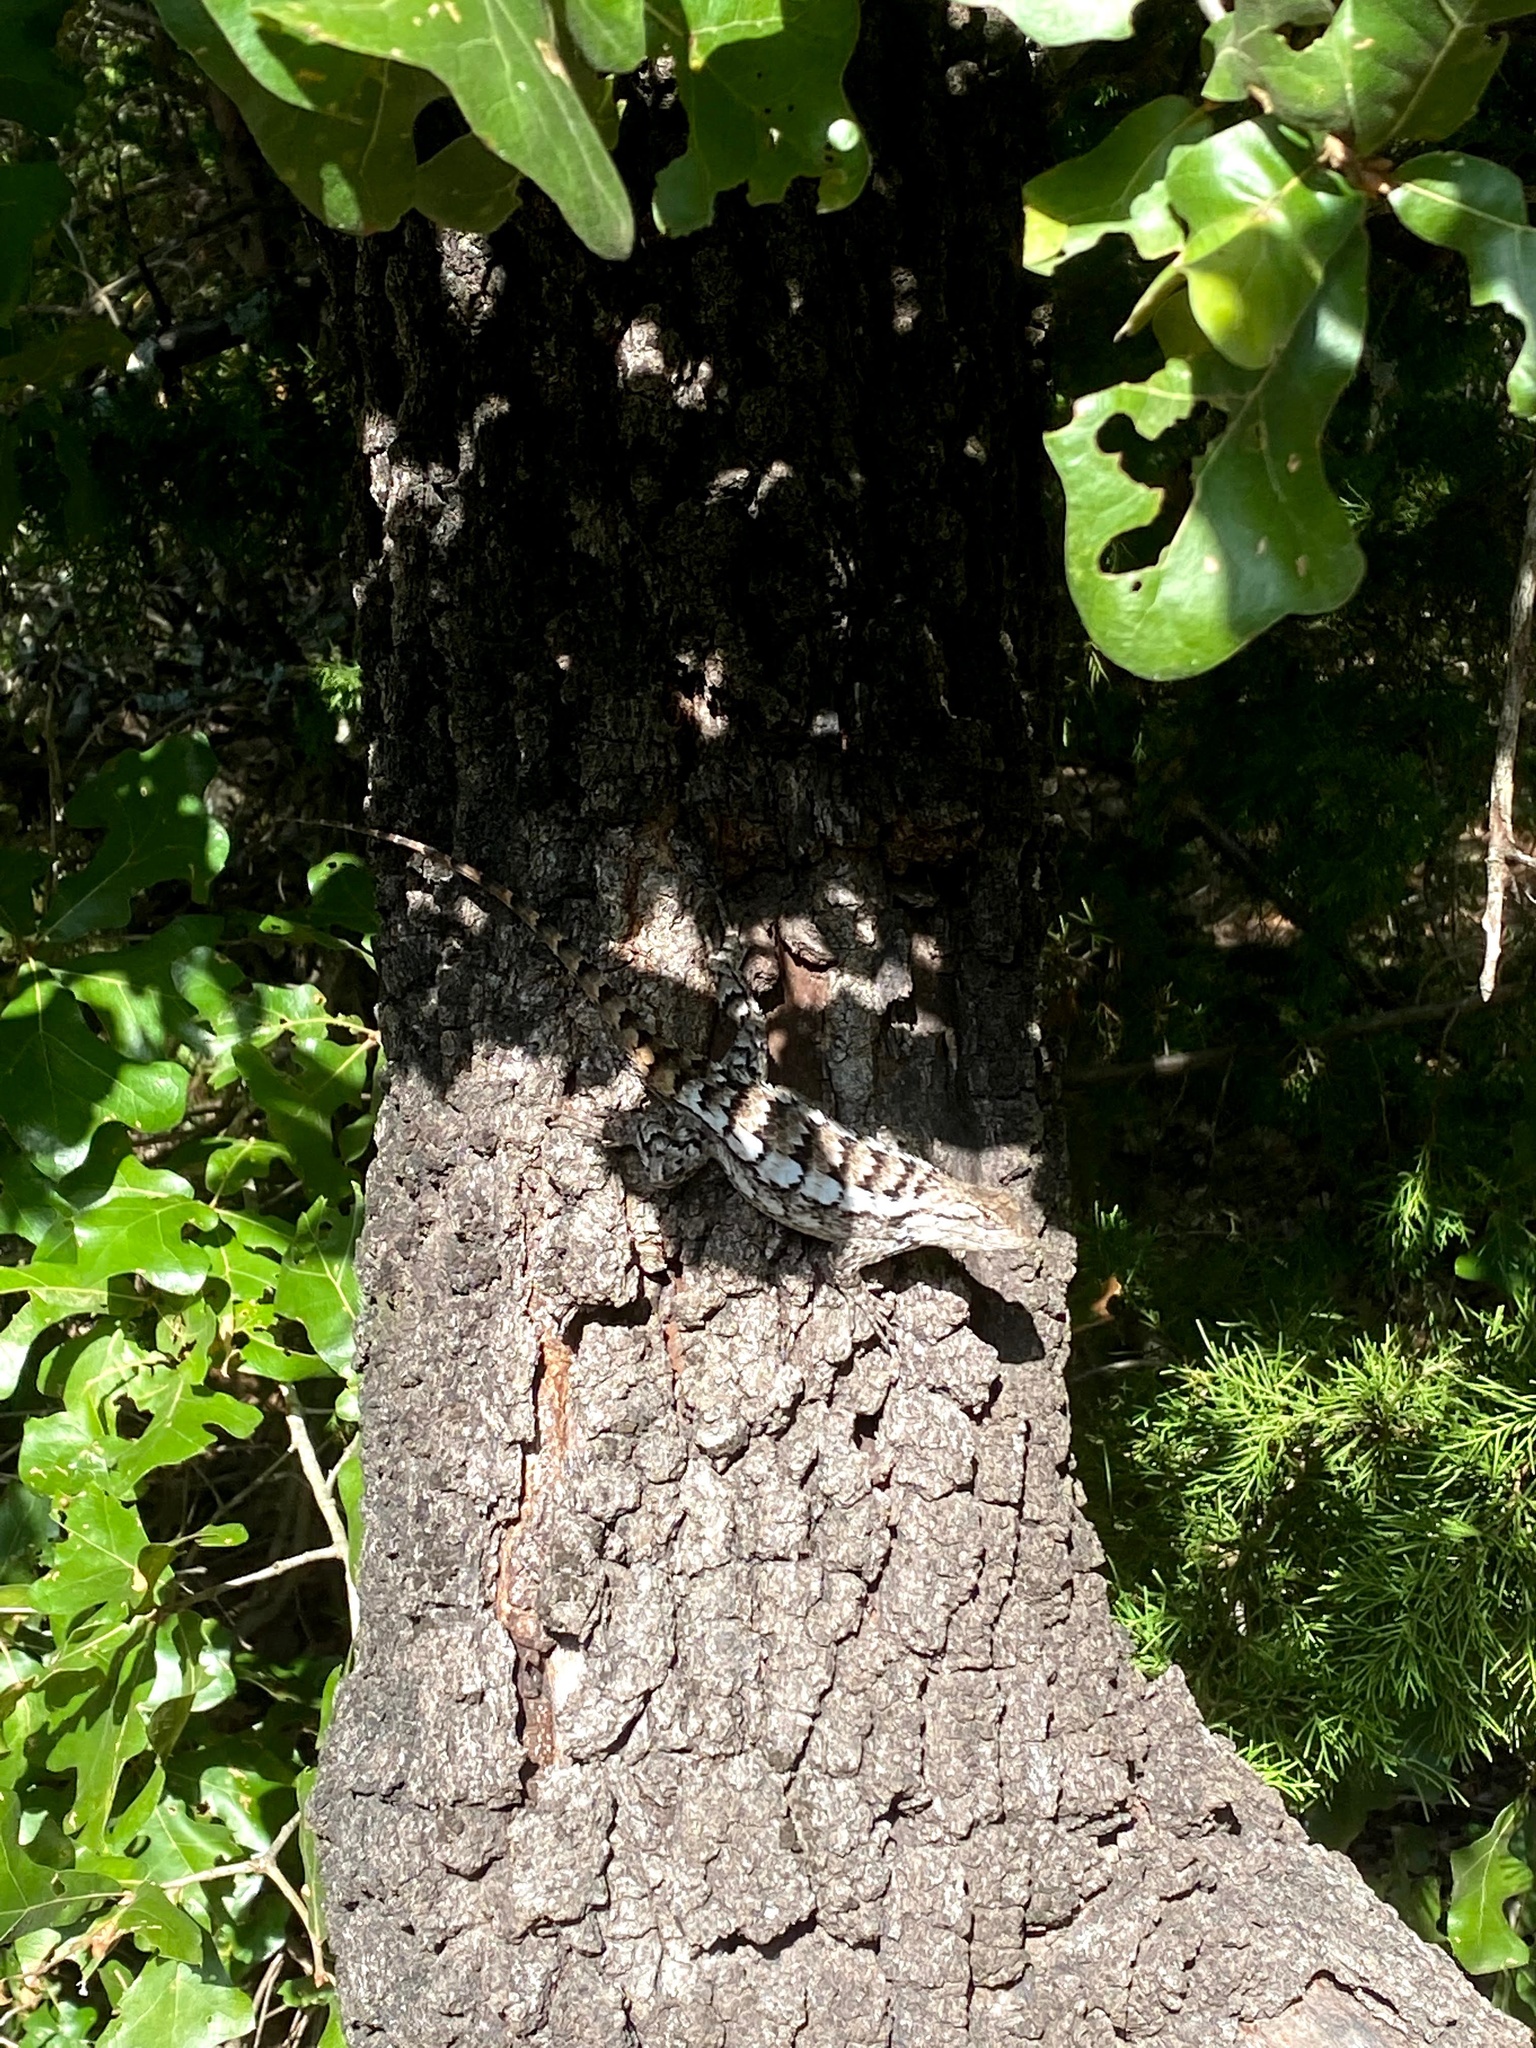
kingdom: Animalia
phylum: Chordata
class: Squamata
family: Phrynosomatidae
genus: Sceloporus
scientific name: Sceloporus olivaceus
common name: Texas spiny lizard
